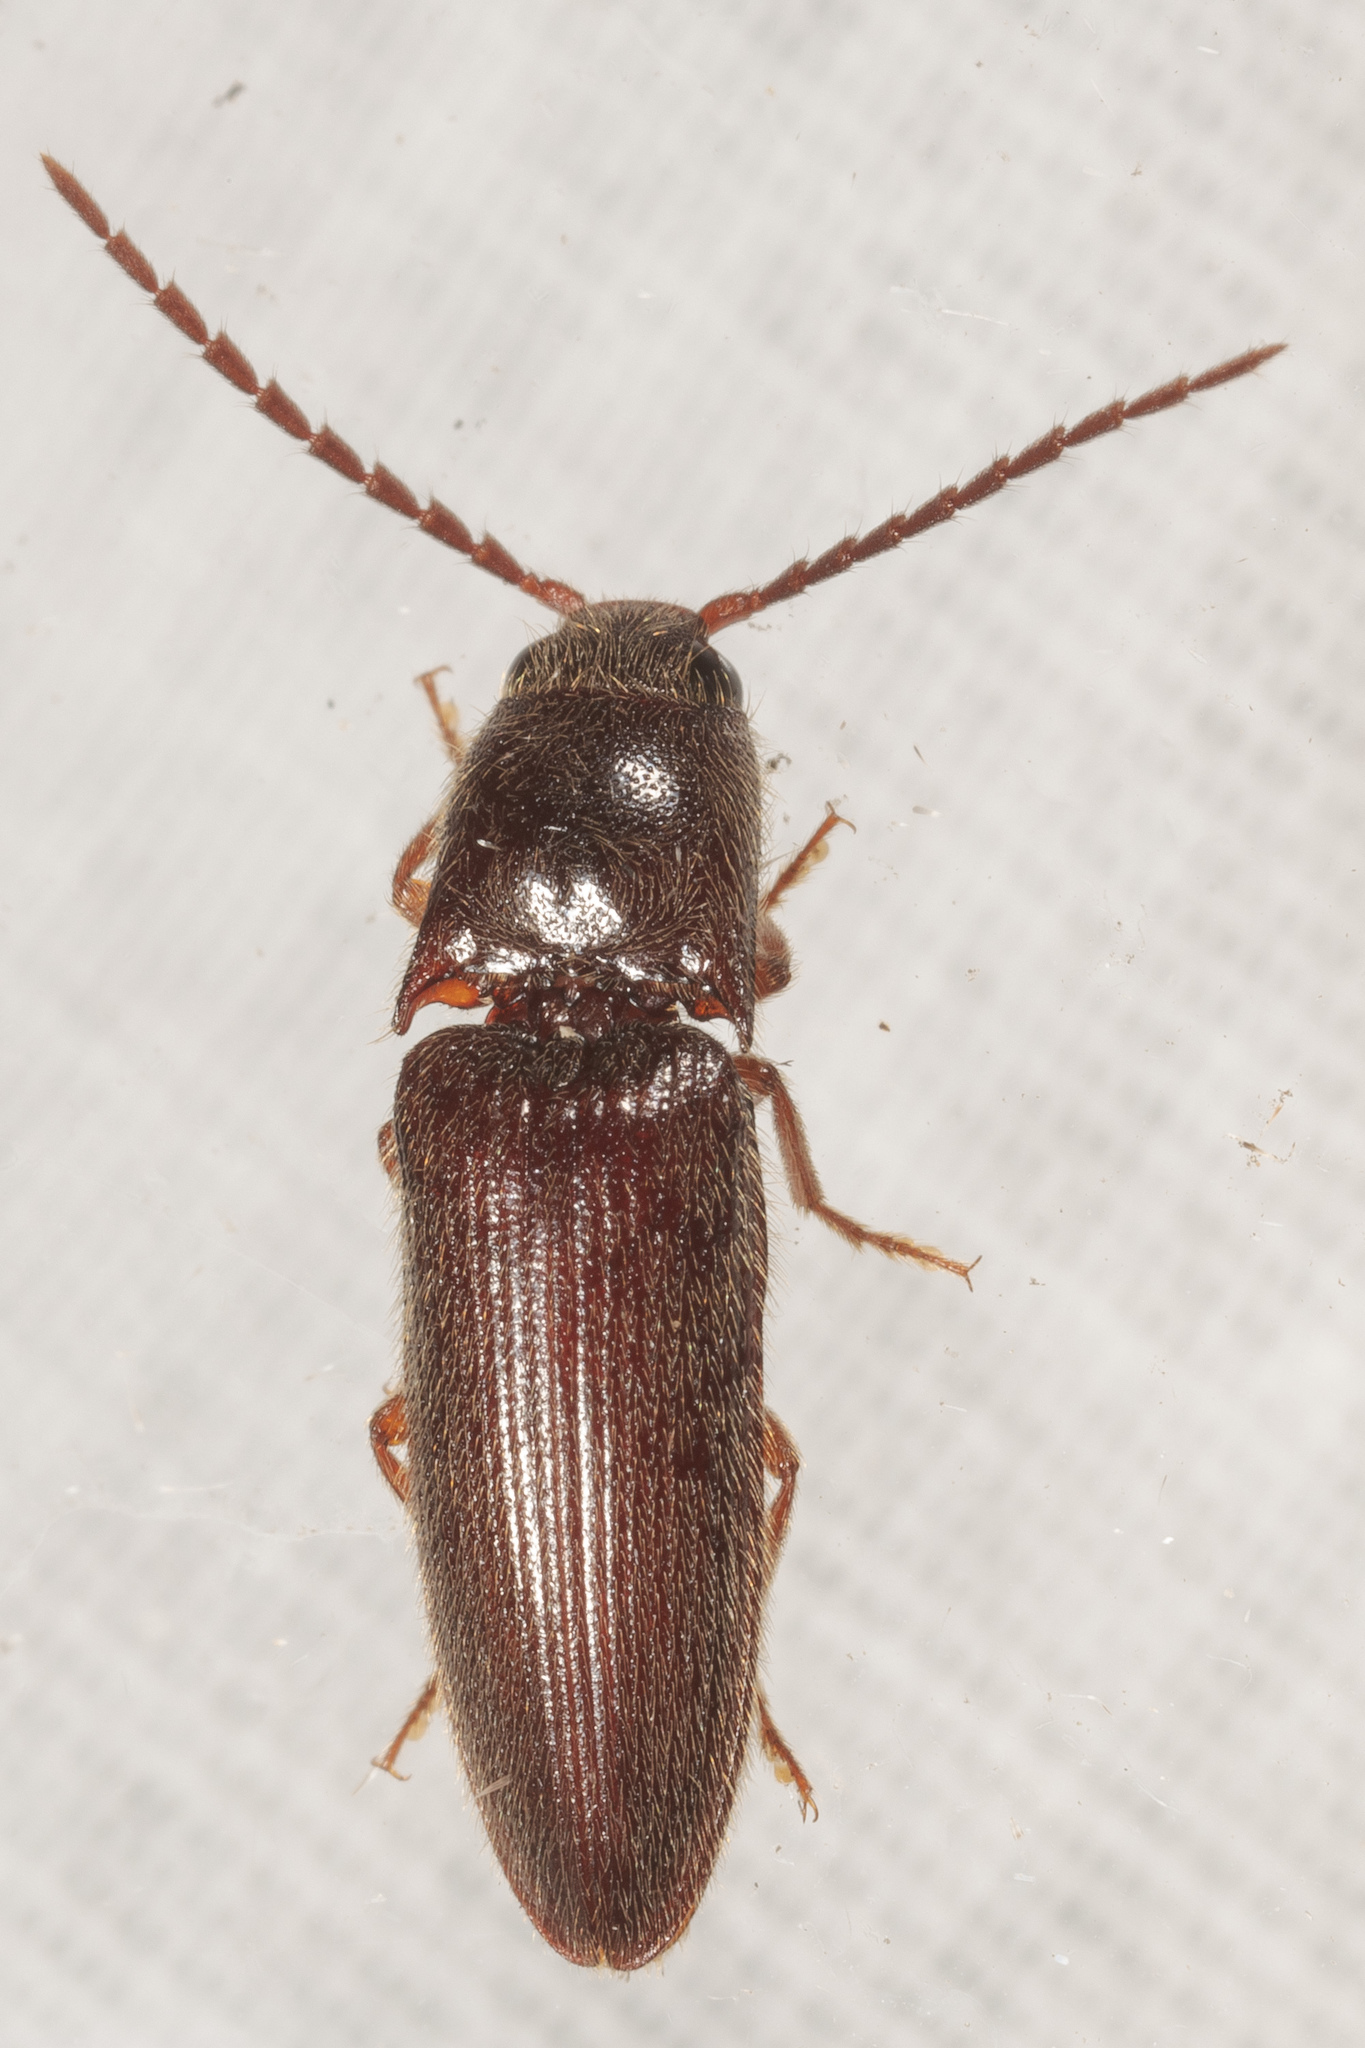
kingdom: Animalia
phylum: Arthropoda
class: Insecta
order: Coleoptera
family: Elateridae
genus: Dipropus
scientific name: Dipropus
